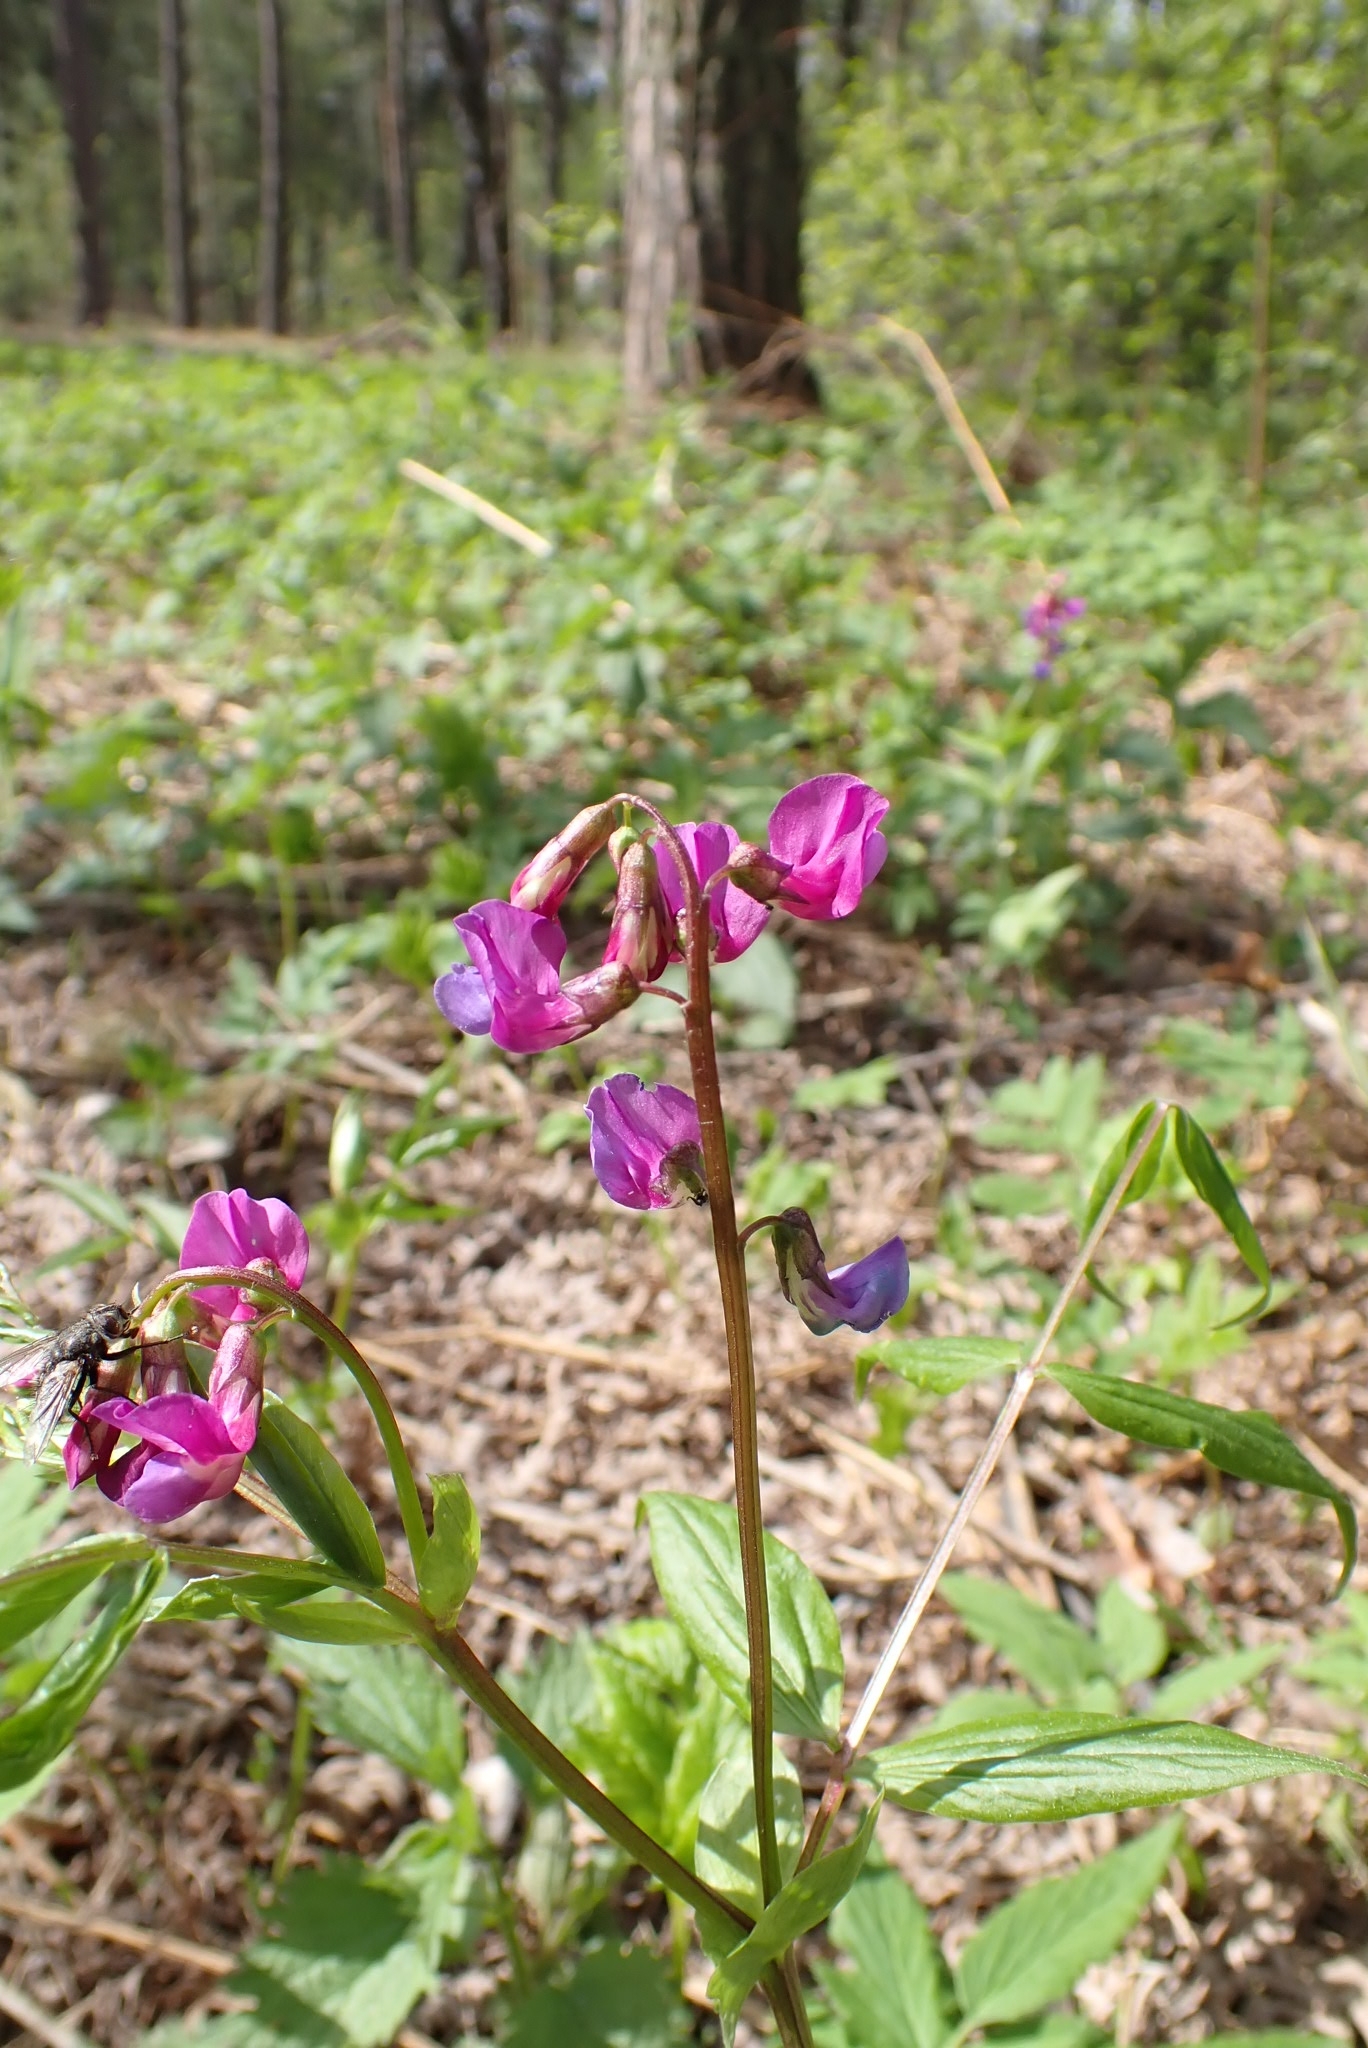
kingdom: Plantae
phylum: Tracheophyta
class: Magnoliopsida
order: Fabales
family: Fabaceae
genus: Lathyrus
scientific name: Lathyrus vernus
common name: Spring pea
